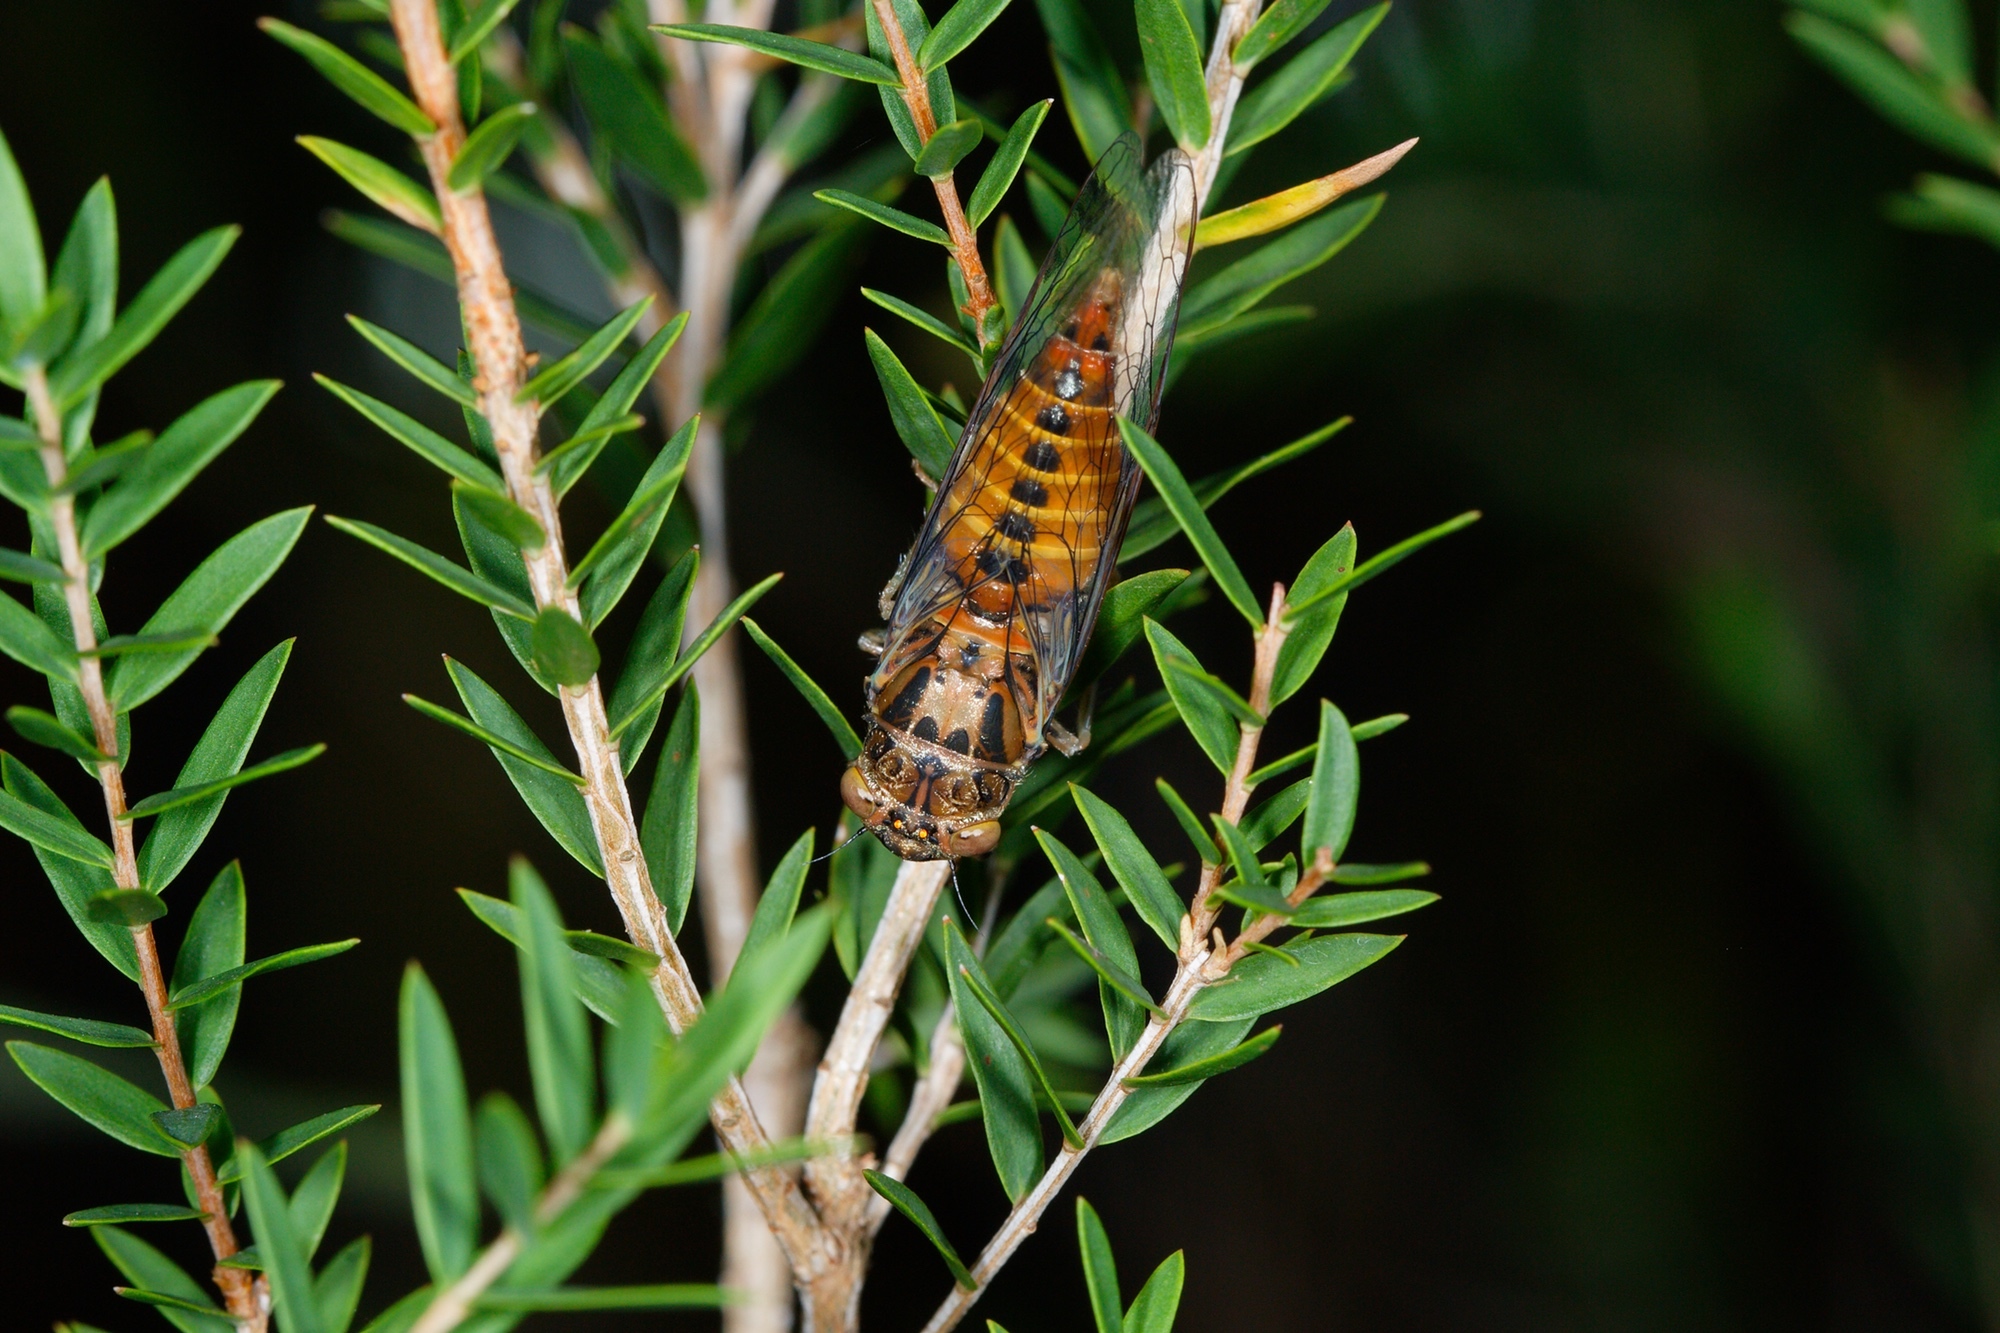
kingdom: Animalia
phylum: Arthropoda
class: Insecta
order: Hemiptera
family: Cicadidae
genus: Yoyetta
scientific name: Yoyetta celis
